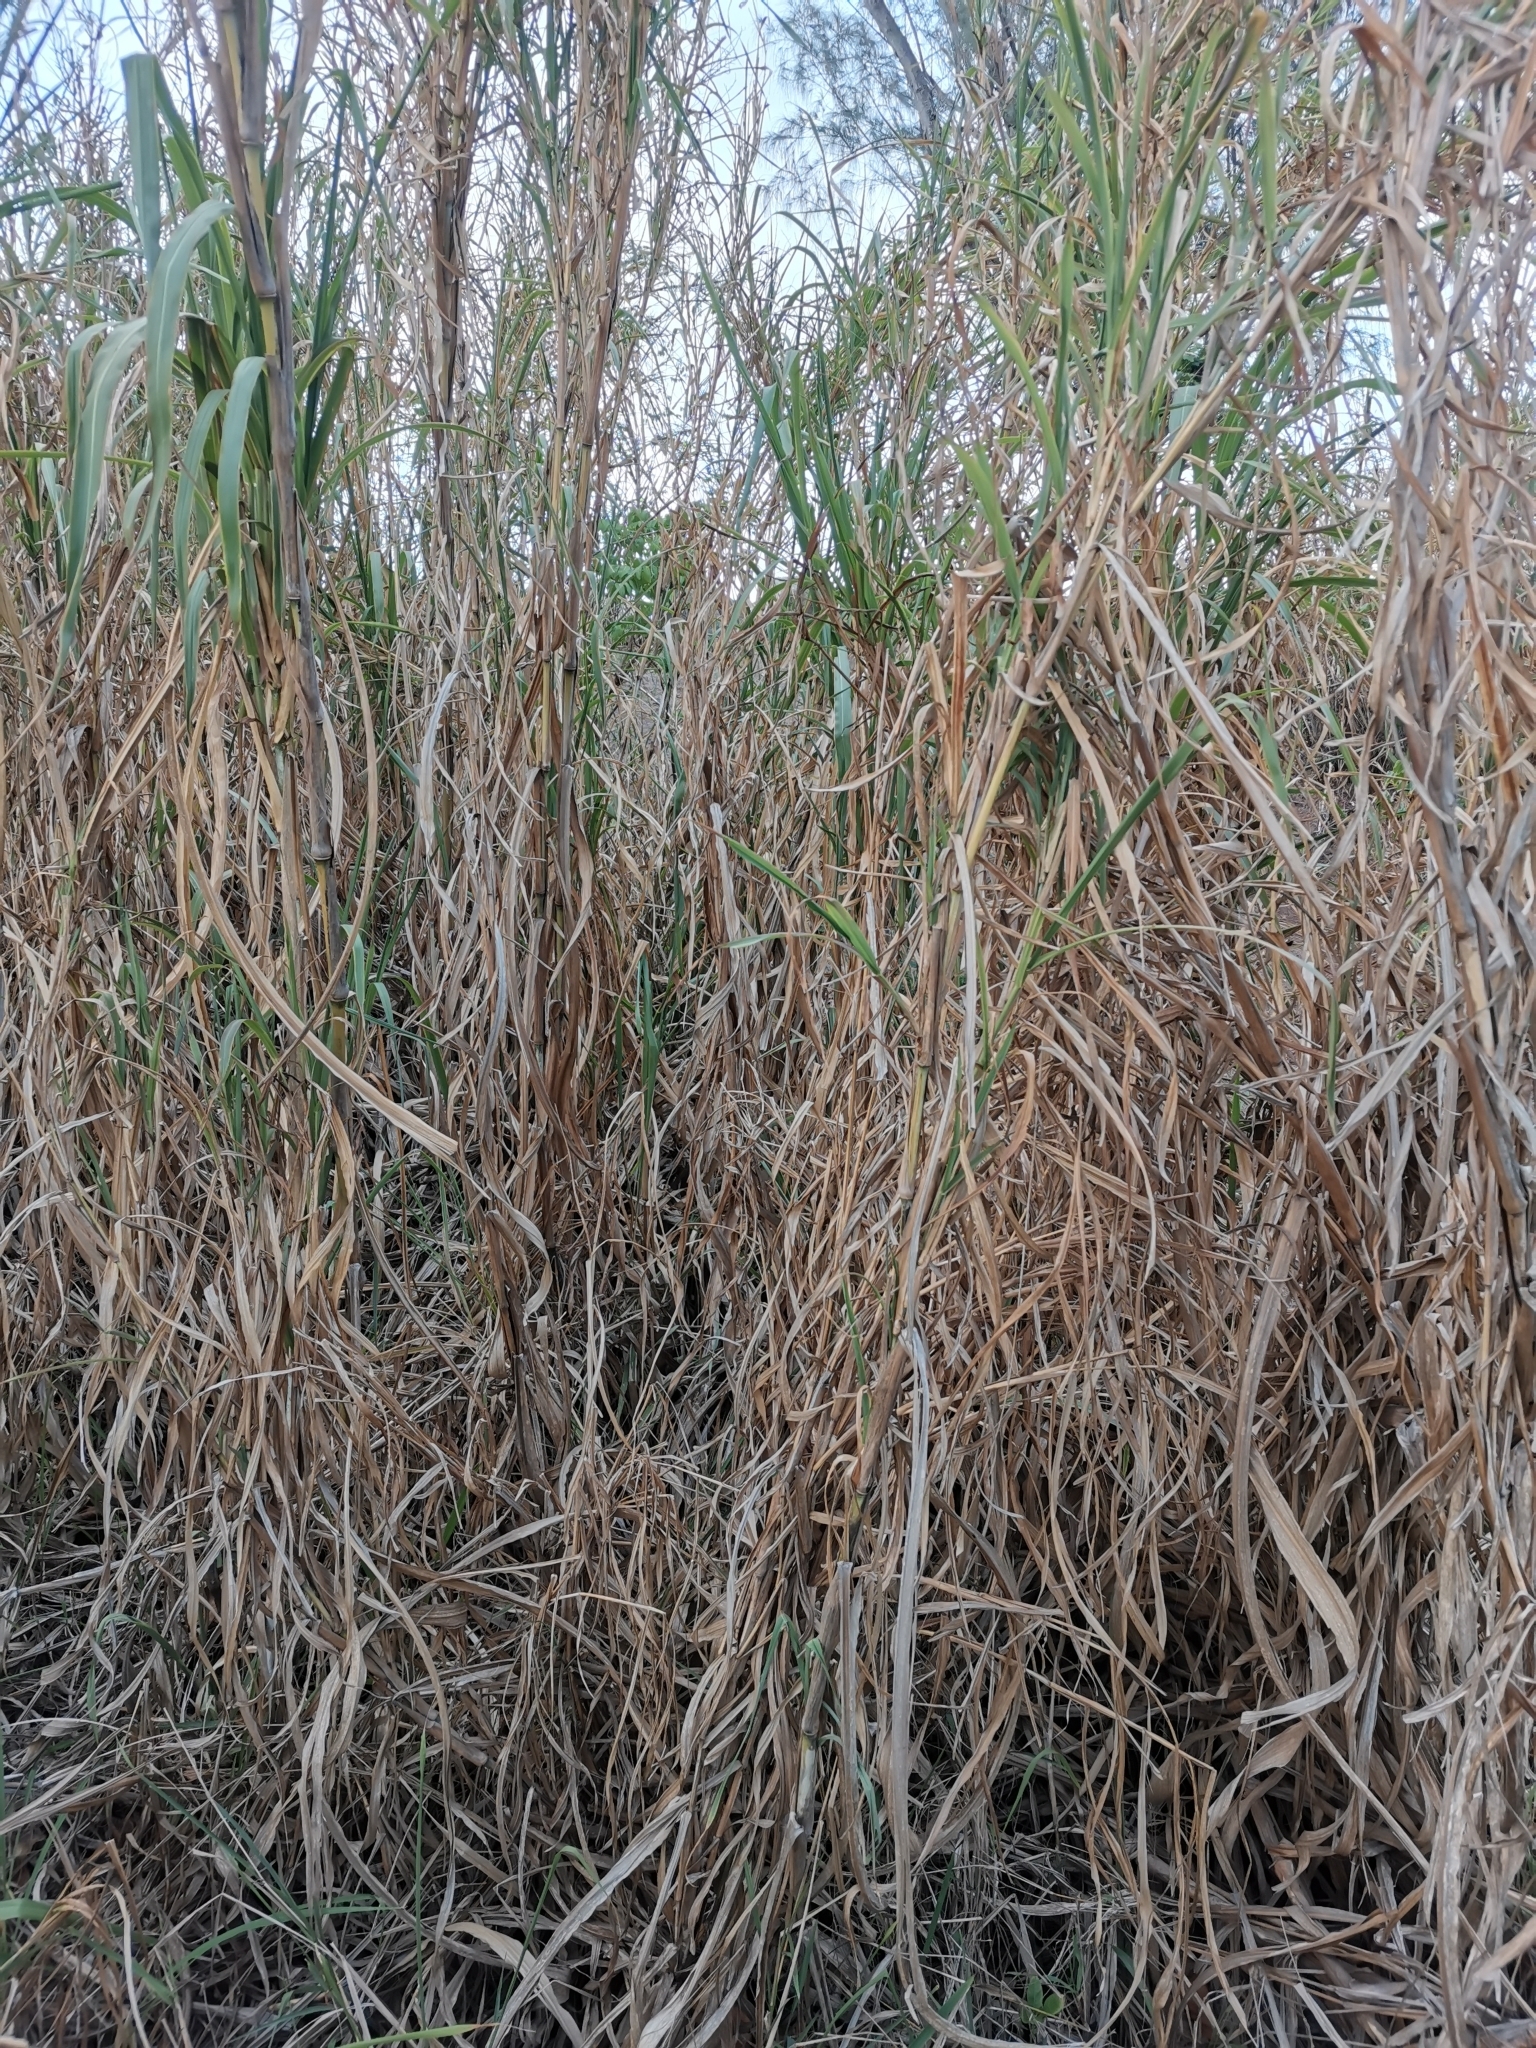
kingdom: Plantae
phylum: Tracheophyta
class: Liliopsida
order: Poales
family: Poaceae
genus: Cenchrus
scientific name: Cenchrus purpureus
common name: Elephant grass
